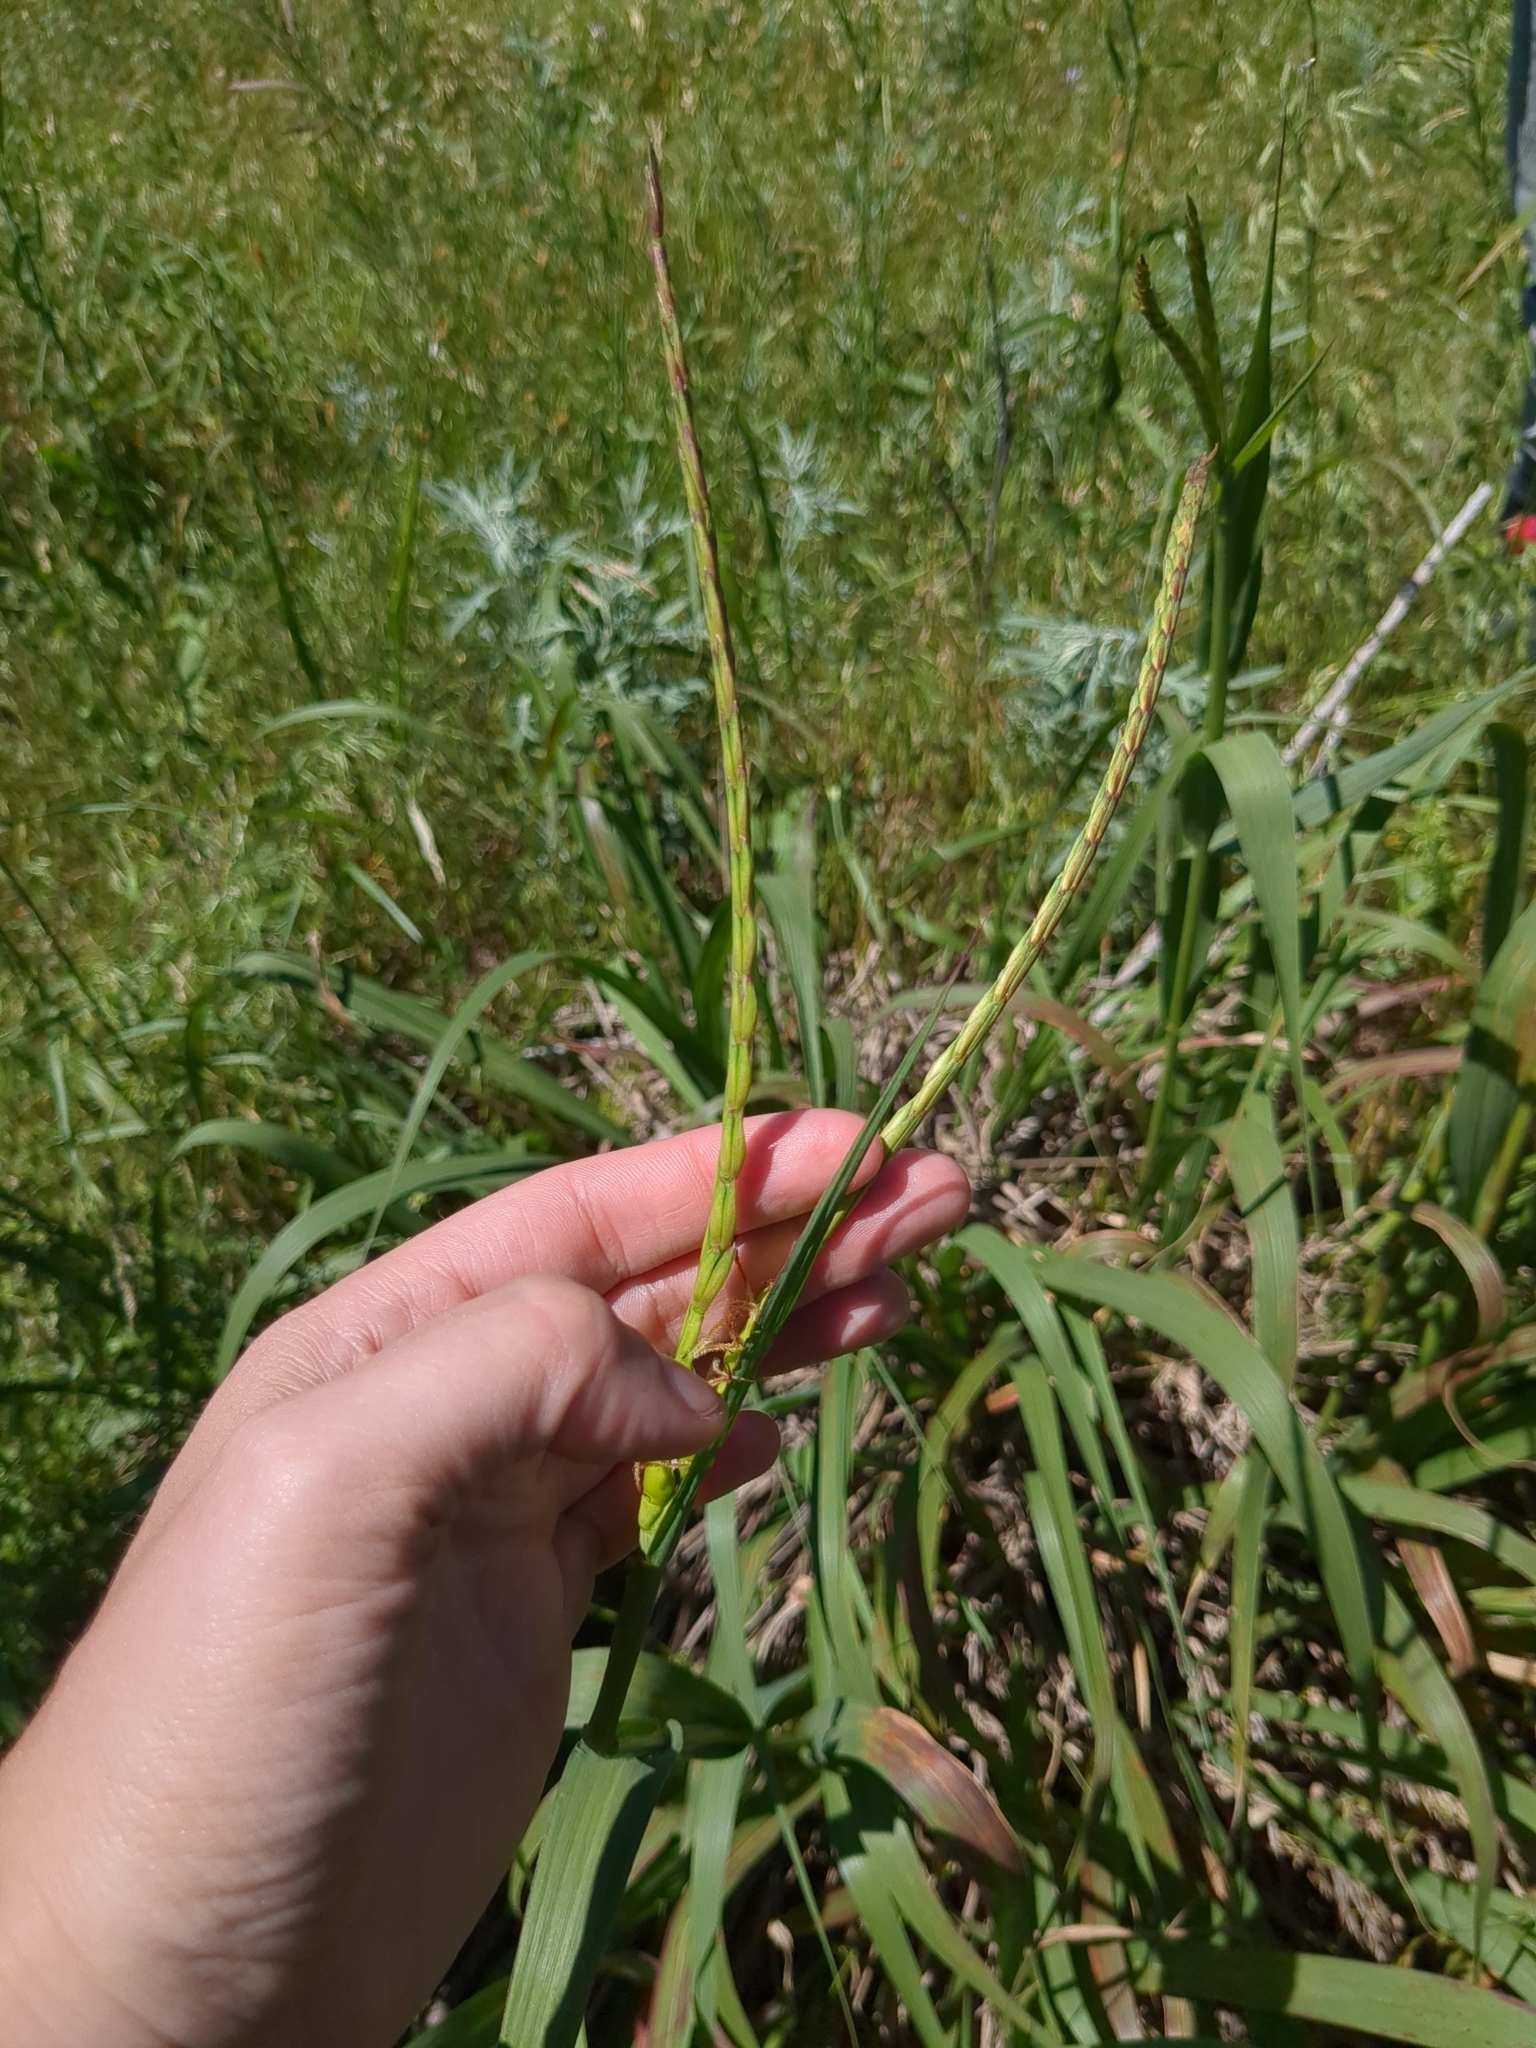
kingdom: Plantae
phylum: Tracheophyta
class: Liliopsida
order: Poales
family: Poaceae
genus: Tripsacum
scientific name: Tripsacum dactyloides
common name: Buffalo-grass
